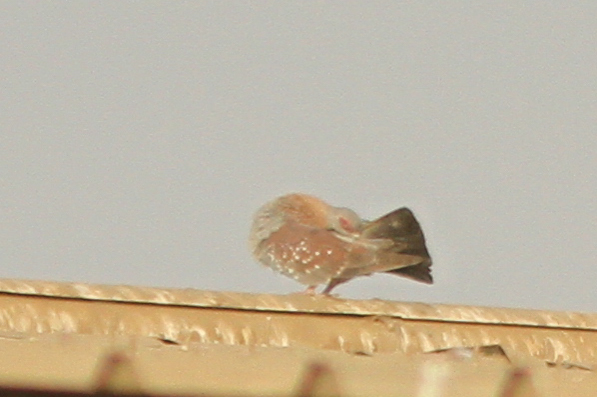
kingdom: Animalia
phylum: Chordata
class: Aves
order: Columbiformes
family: Columbidae
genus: Columba
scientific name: Columba guinea
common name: Speckled pigeon
